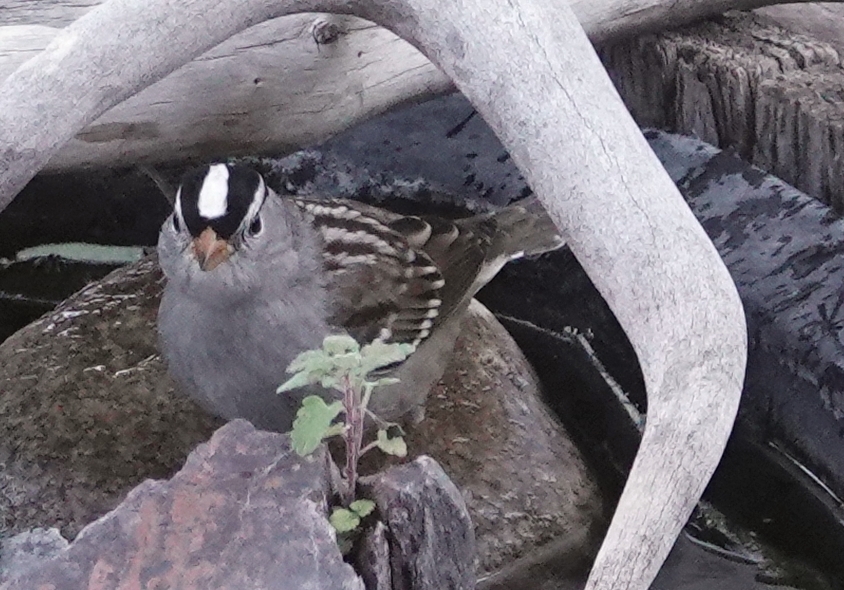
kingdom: Animalia
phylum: Chordata
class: Aves
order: Passeriformes
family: Passerellidae
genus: Zonotrichia
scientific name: Zonotrichia leucophrys
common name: White-crowned sparrow
